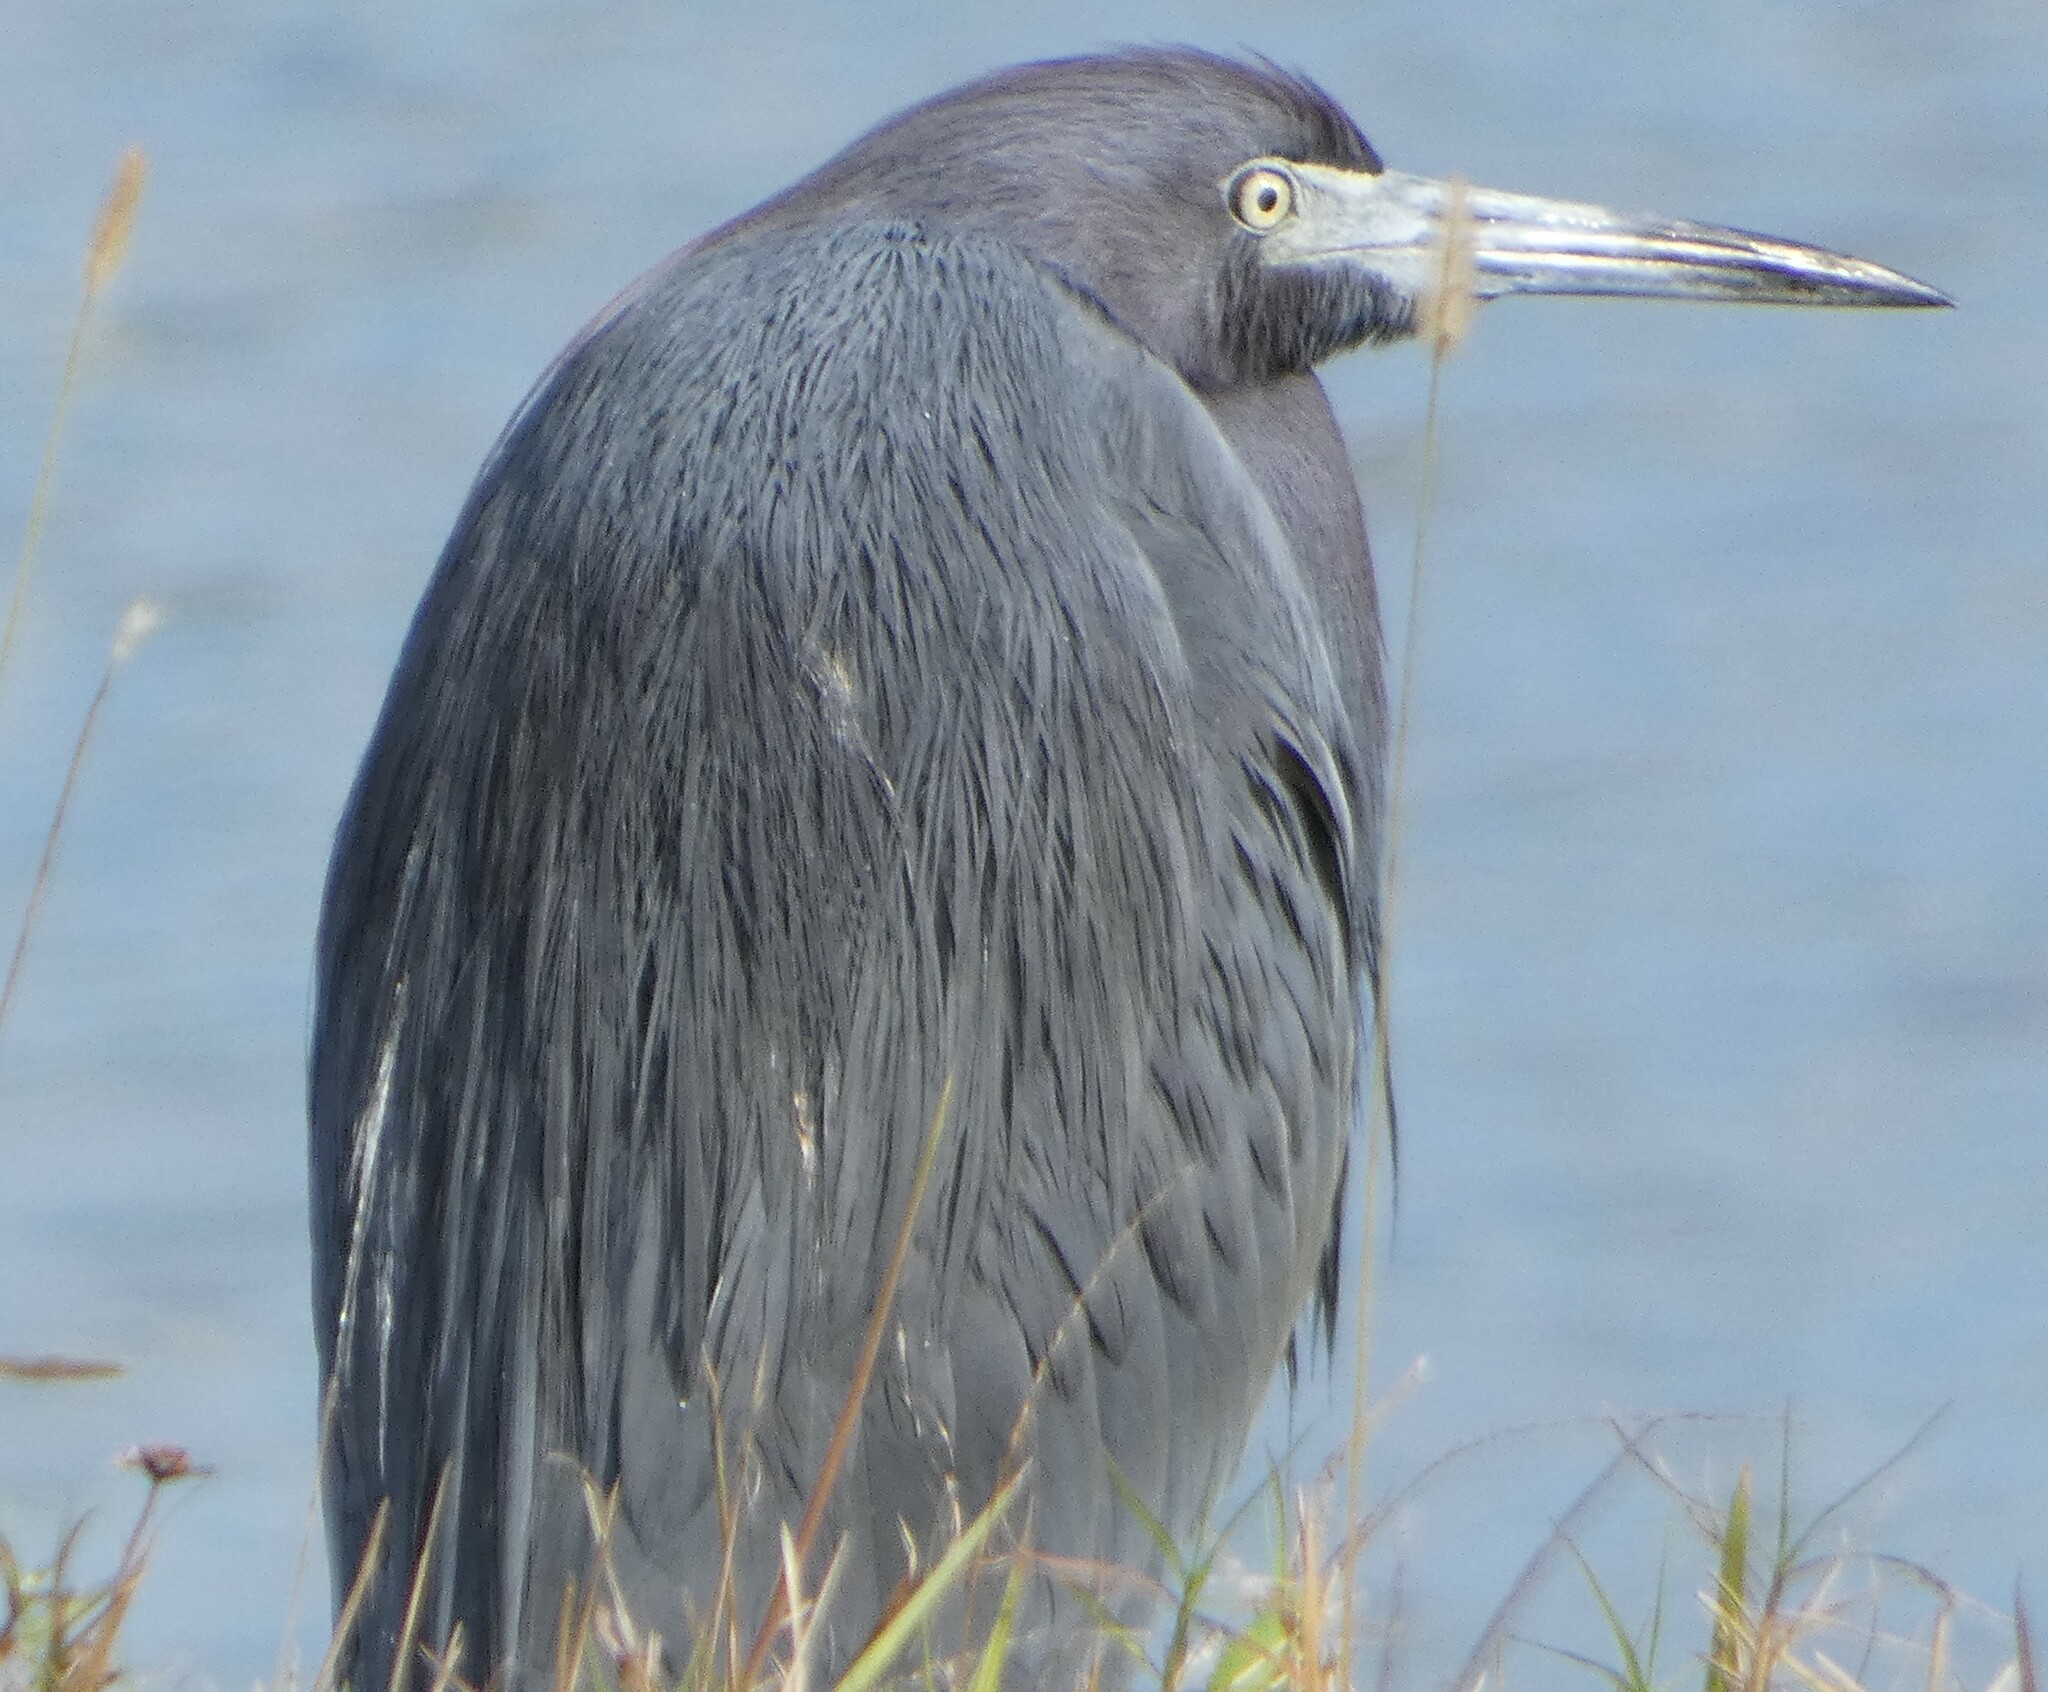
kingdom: Animalia
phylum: Chordata
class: Aves
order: Pelecaniformes
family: Ardeidae
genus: Egretta
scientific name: Egretta caerulea
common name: Little blue heron
